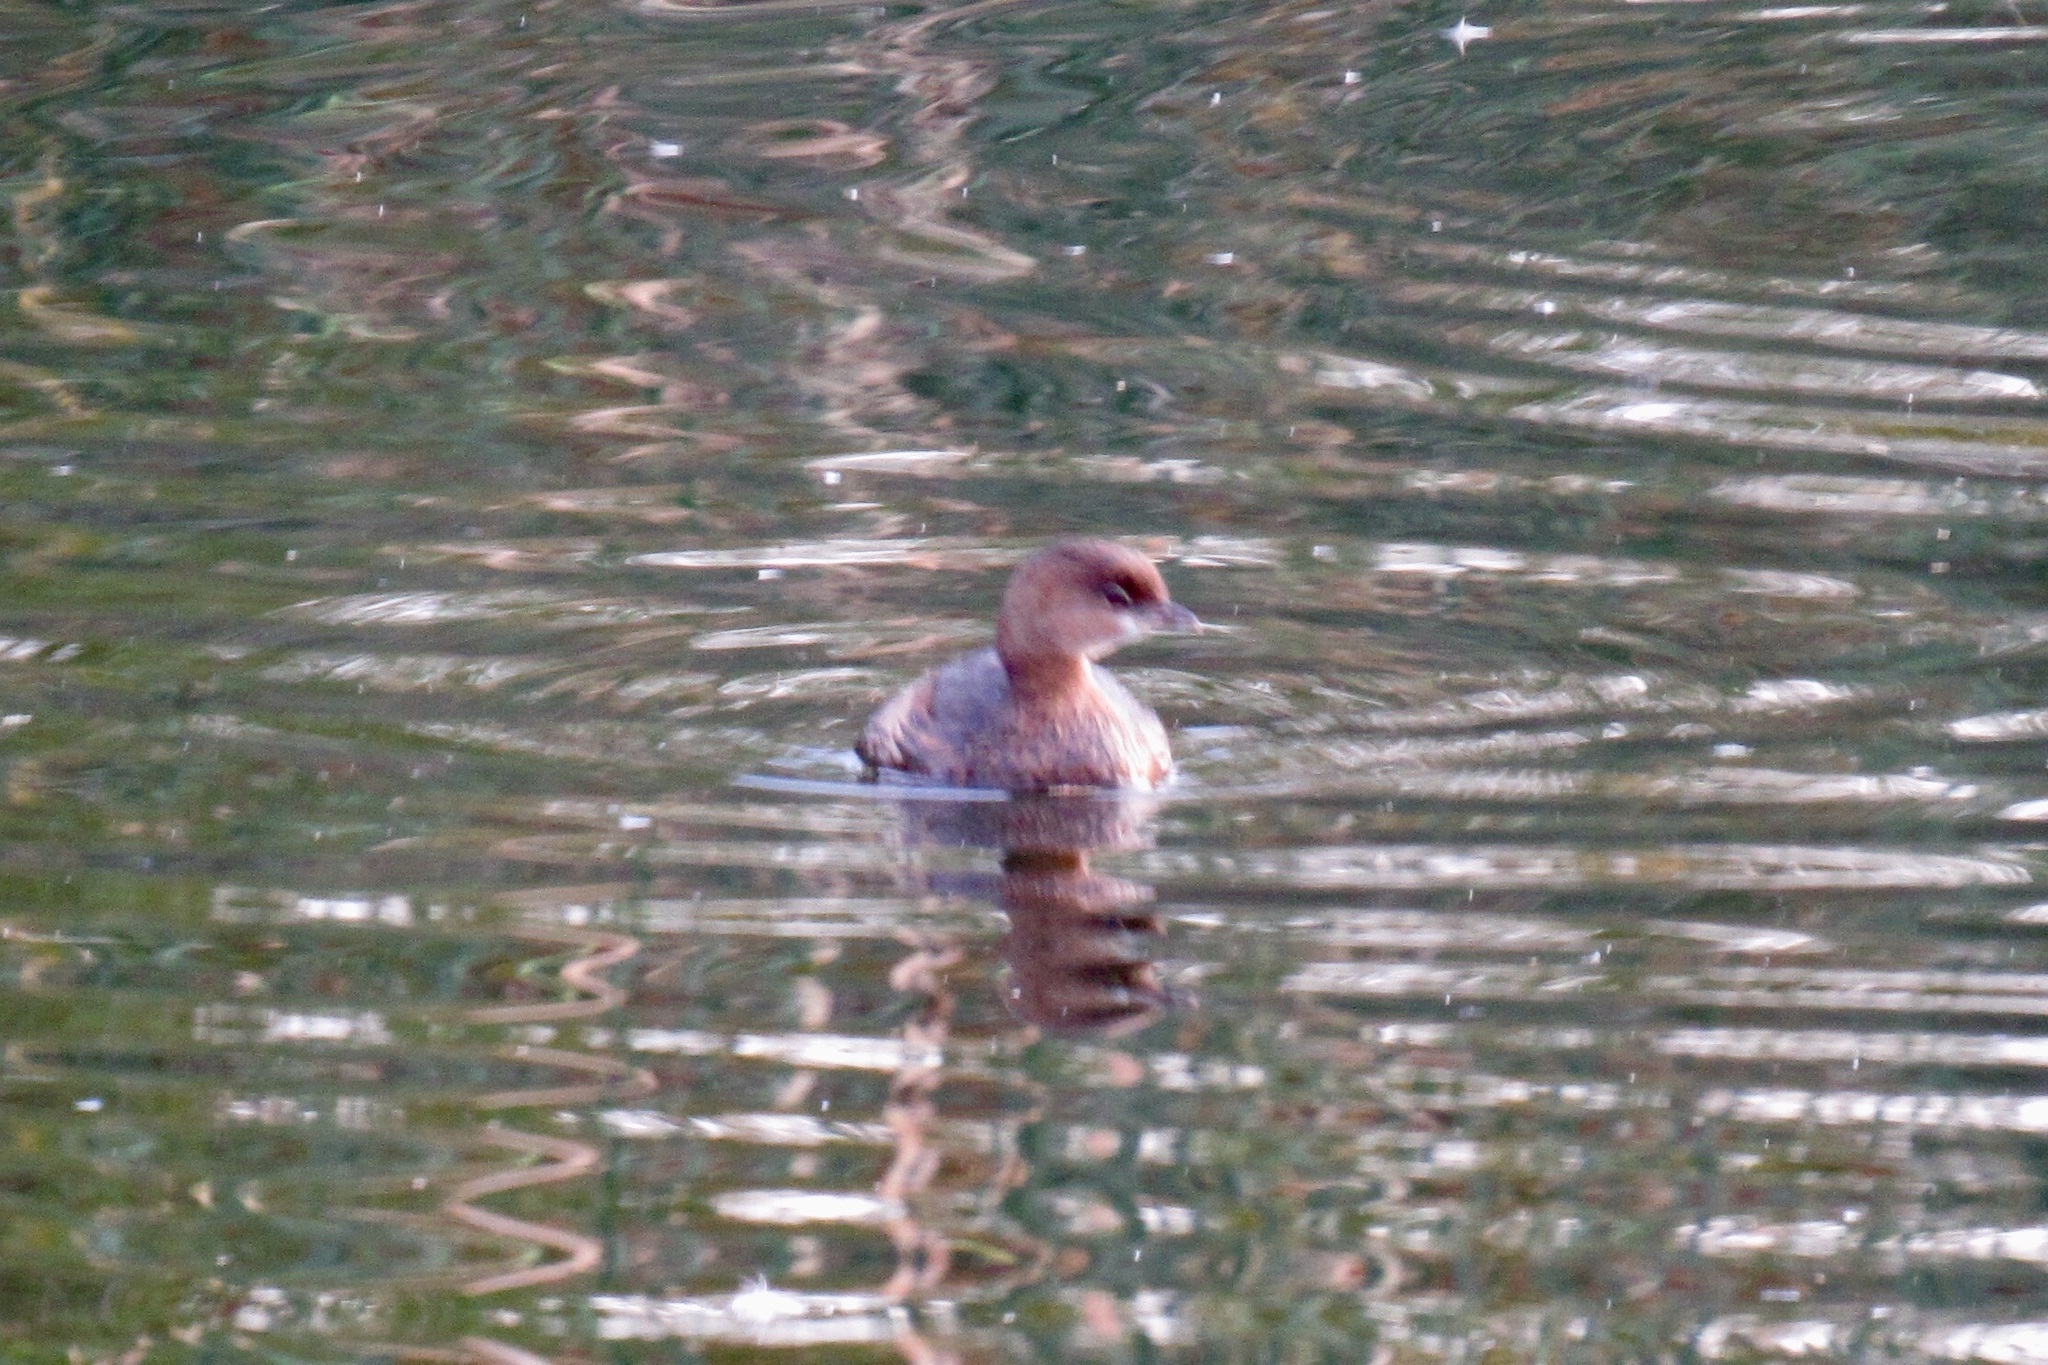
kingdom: Animalia
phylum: Chordata
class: Aves
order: Podicipediformes
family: Podicipedidae
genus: Podilymbus
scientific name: Podilymbus podiceps
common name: Pied-billed grebe
